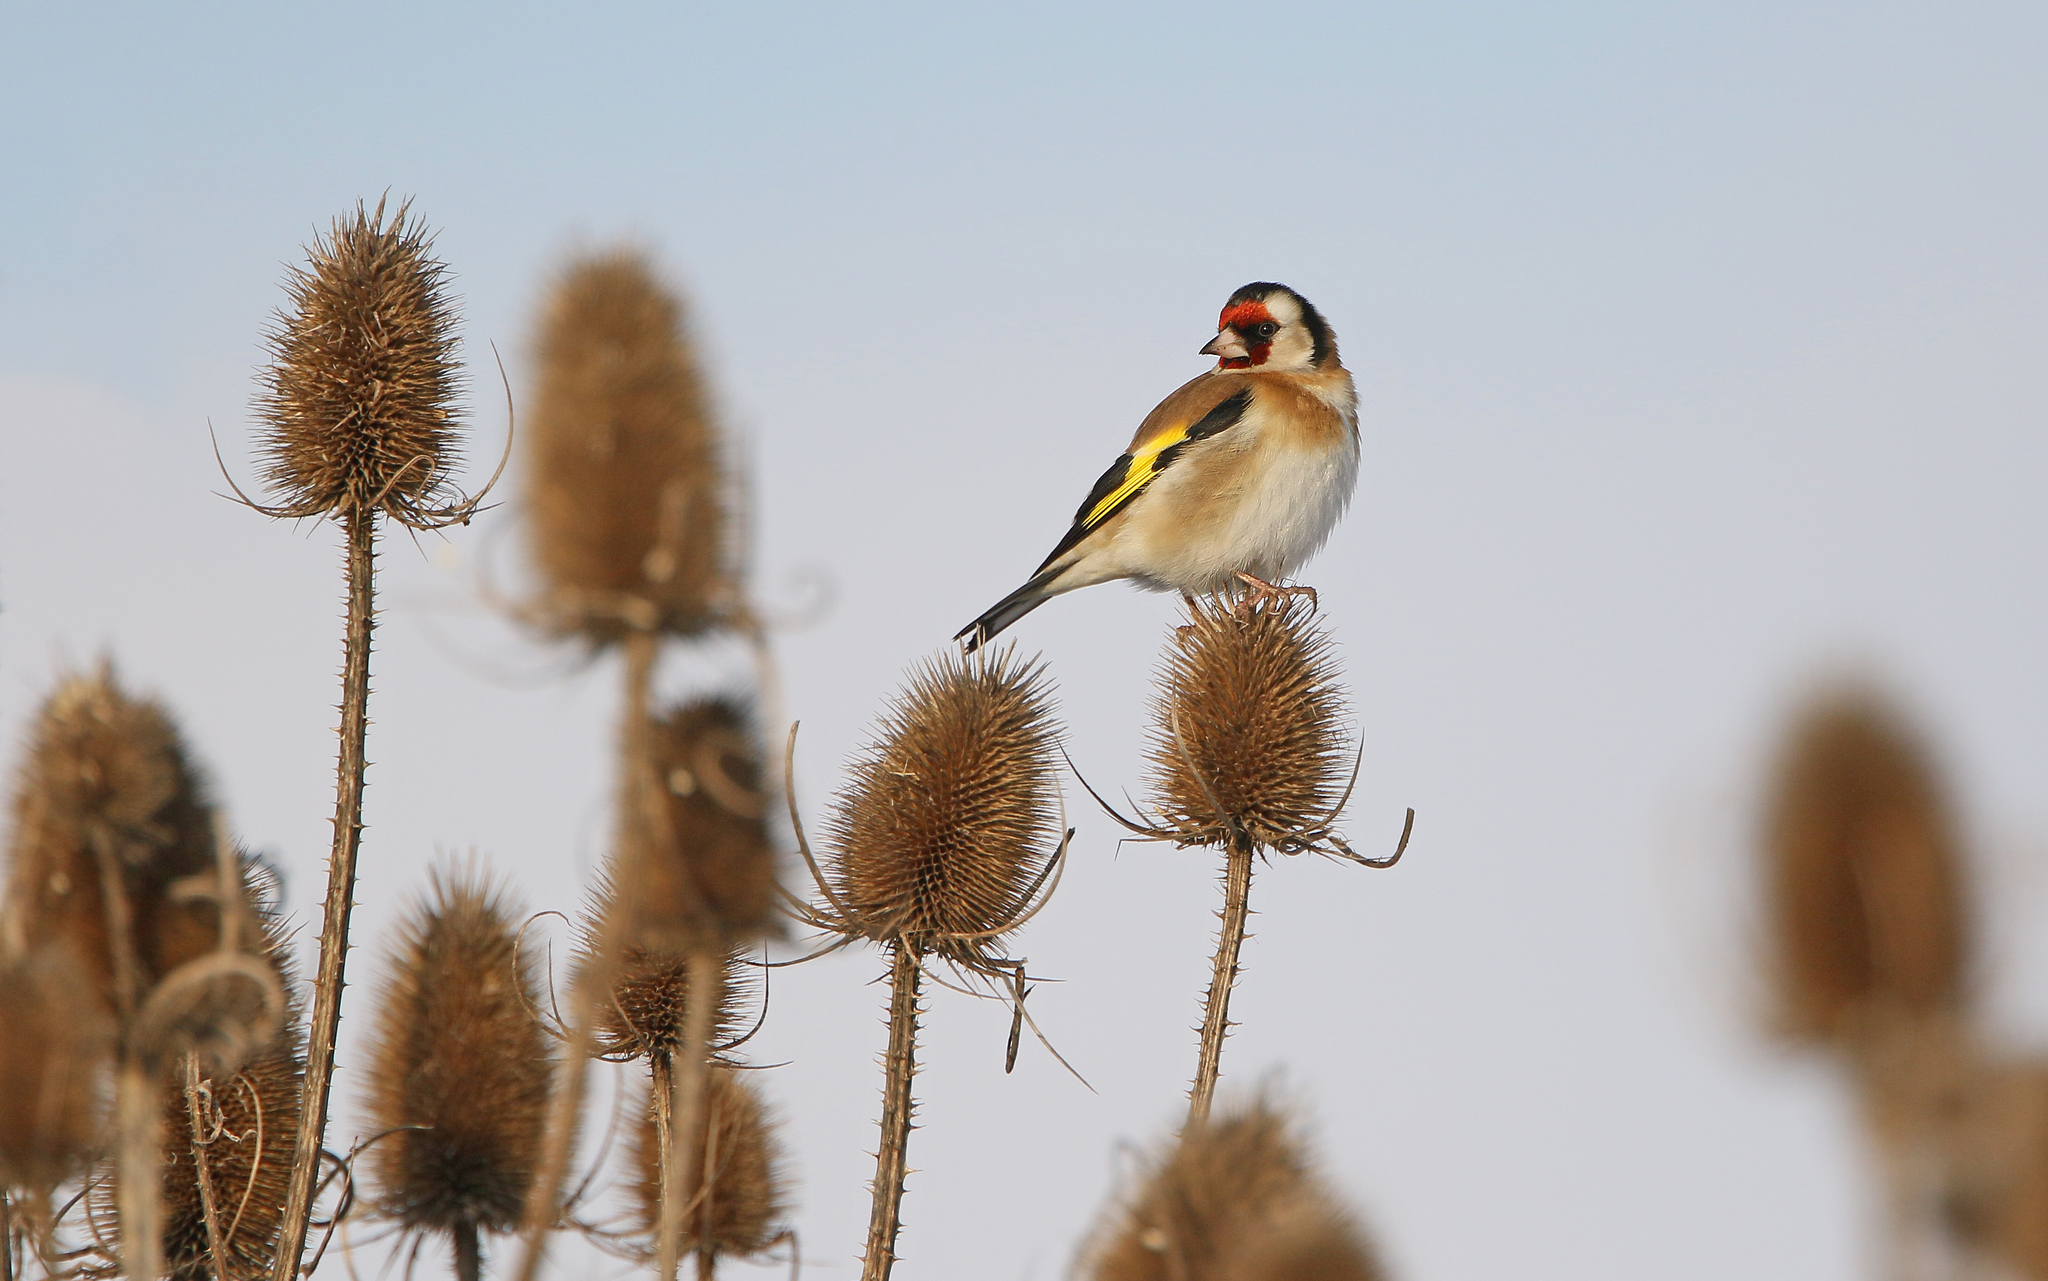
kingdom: Animalia
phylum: Chordata
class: Aves
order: Passeriformes
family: Fringillidae
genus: Carduelis
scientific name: Carduelis carduelis
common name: European goldfinch
